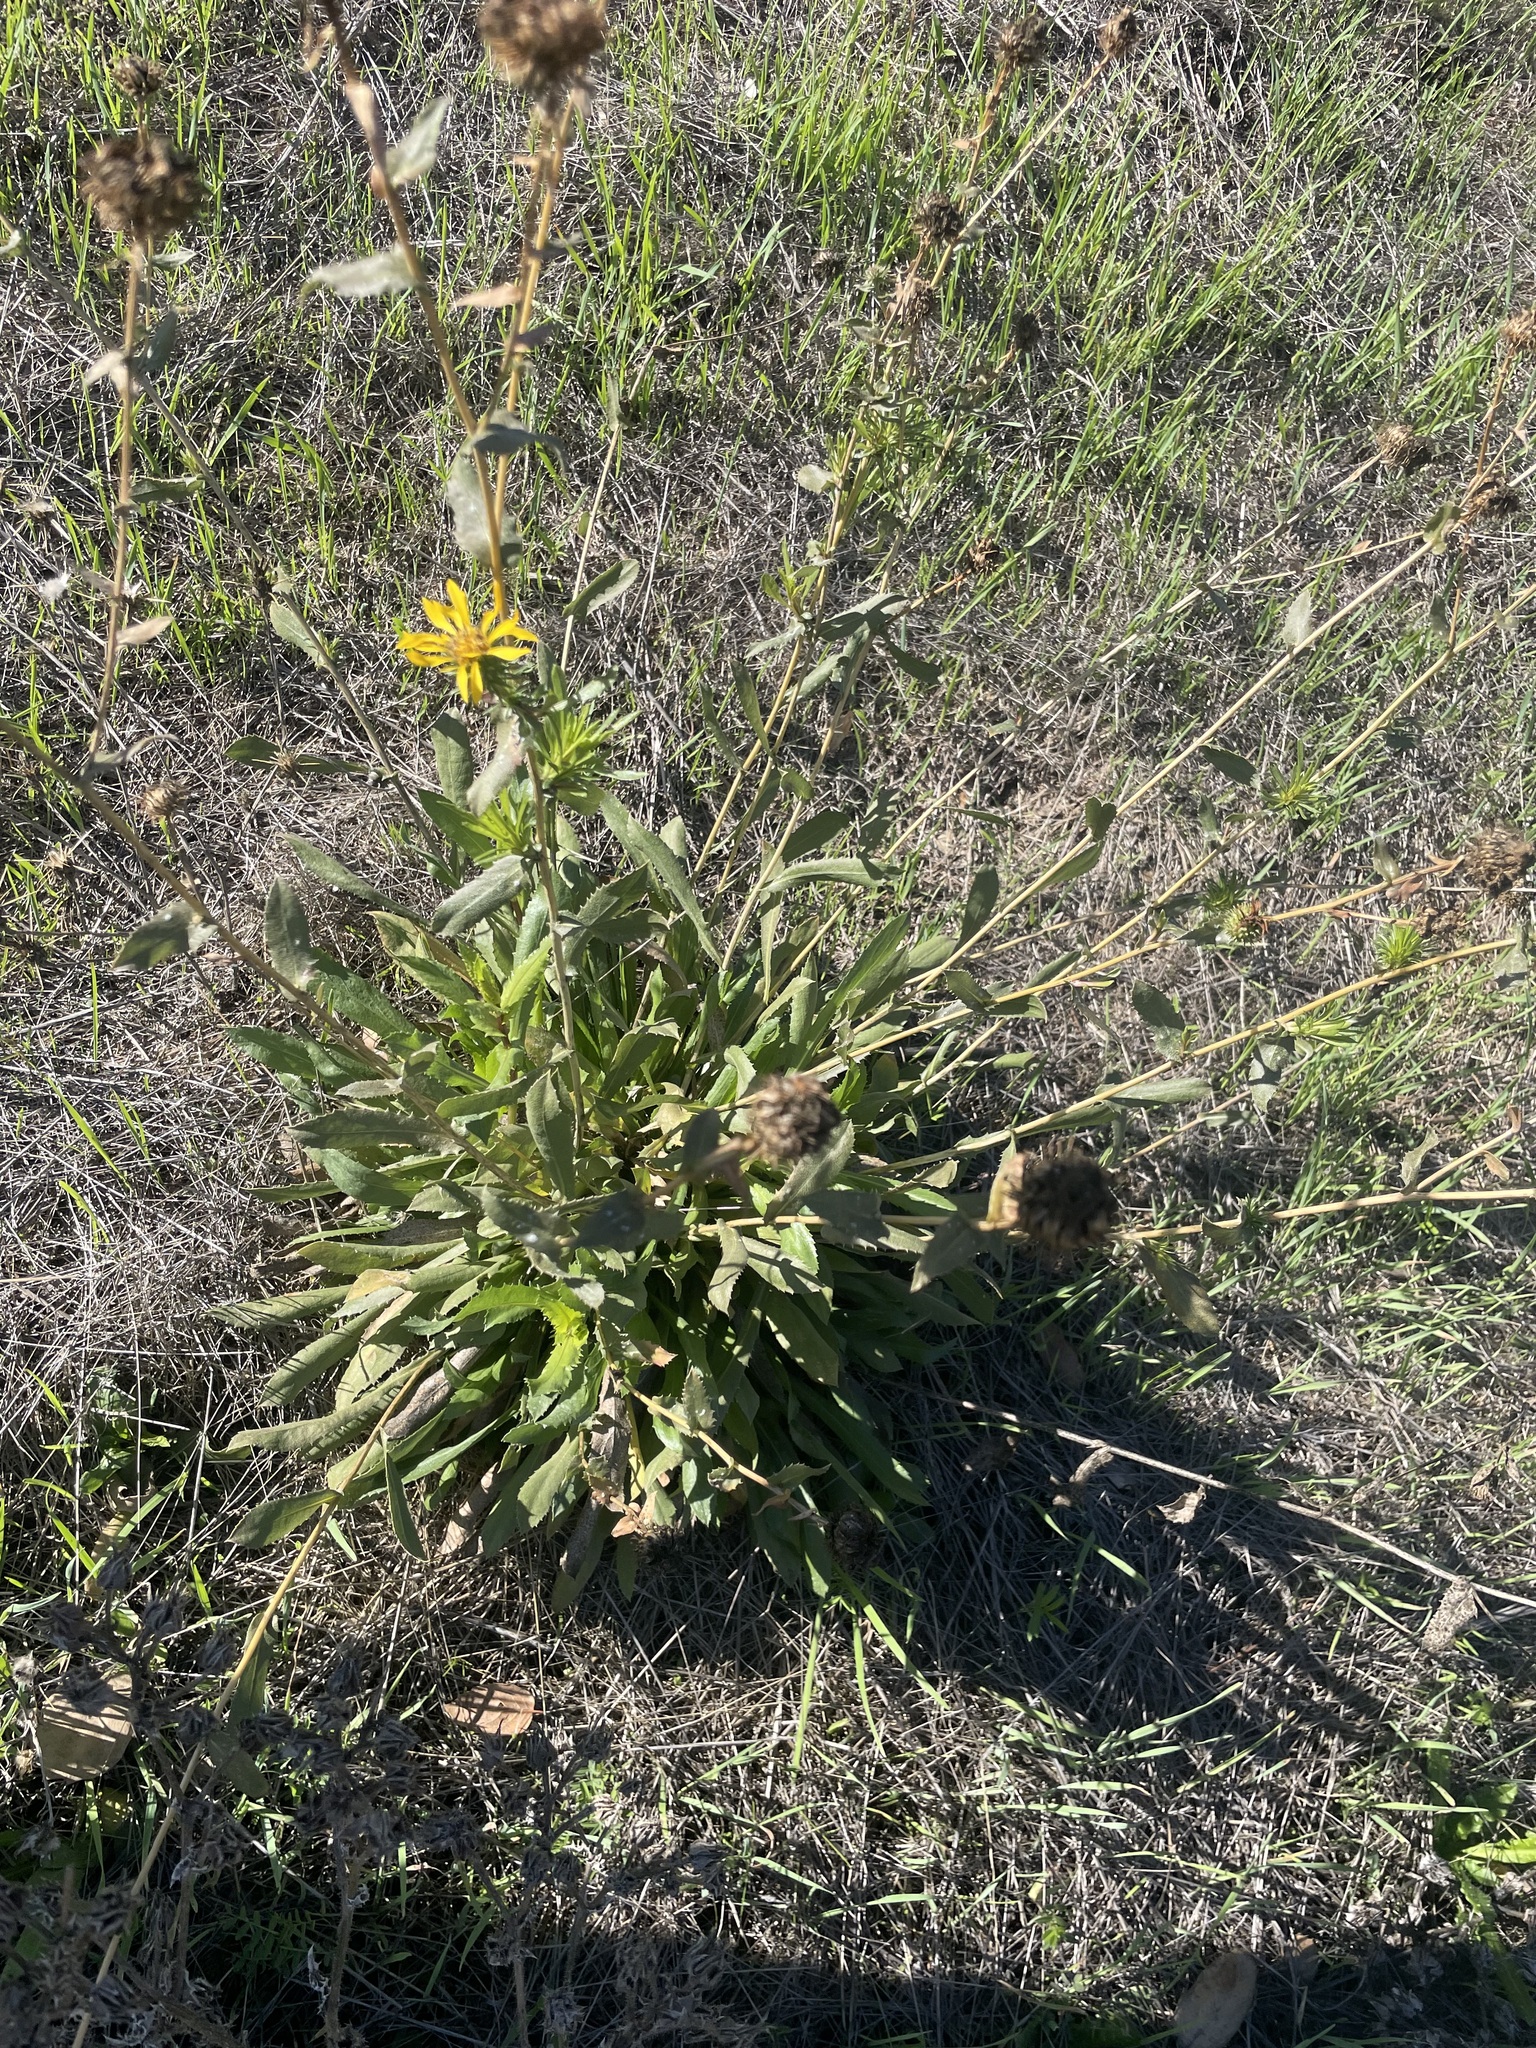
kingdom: Plantae
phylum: Tracheophyta
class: Magnoliopsida
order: Asterales
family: Asteraceae
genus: Grindelia
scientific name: Grindelia hirsutula
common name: Hairy gumweed
